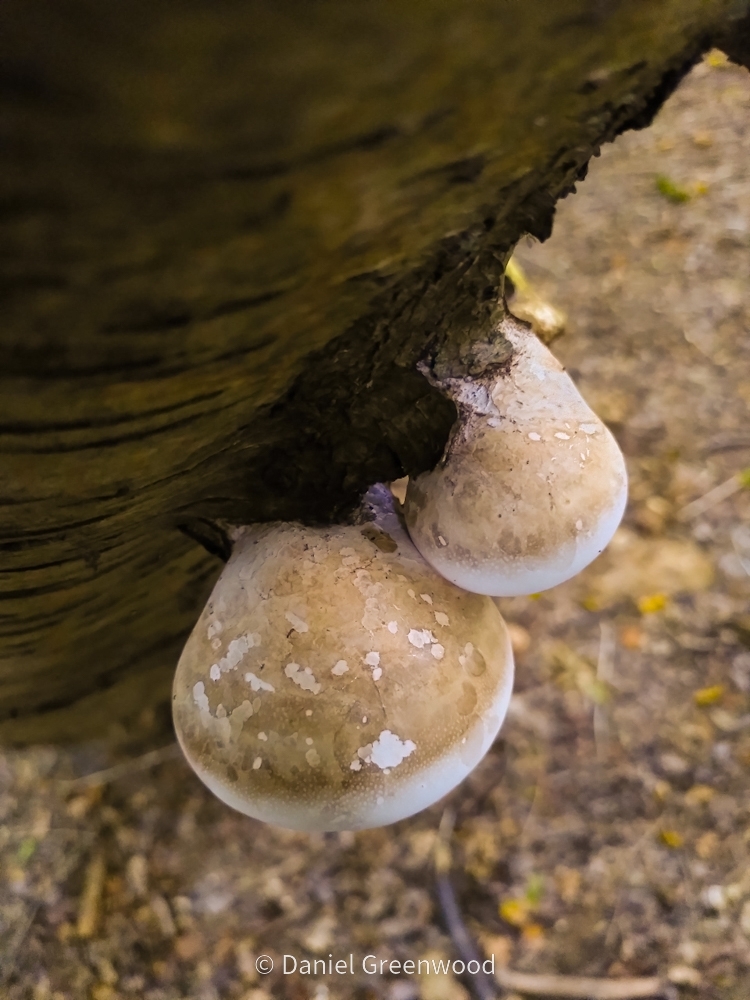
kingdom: Fungi
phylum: Basidiomycota
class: Agaricomycetes
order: Polyporales
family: Fomitopsidaceae
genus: Fomitopsis
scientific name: Fomitopsis betulina
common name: Birch polypore
